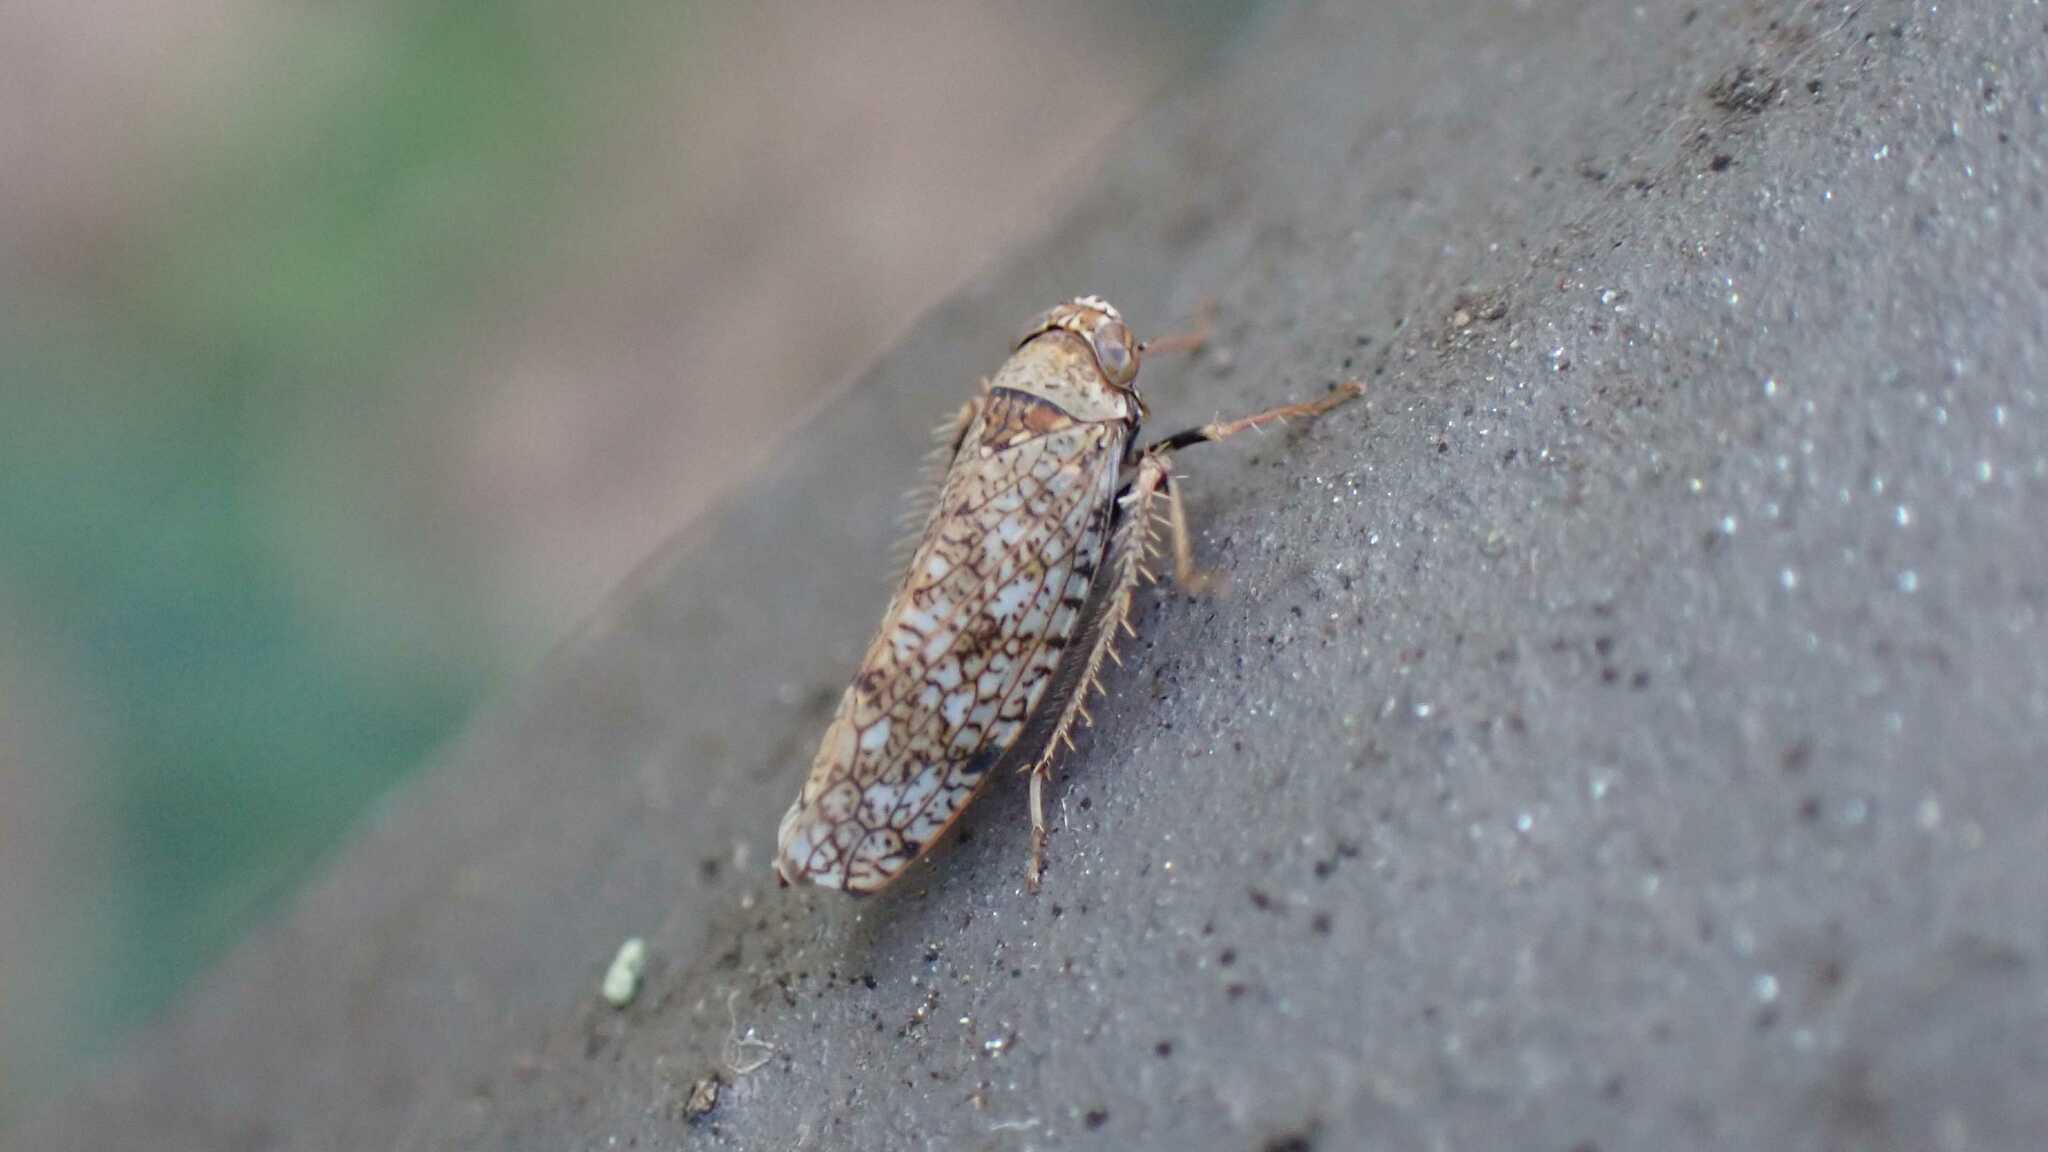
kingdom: Animalia
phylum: Arthropoda
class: Insecta
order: Hemiptera
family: Cicadellidae
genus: Orientus
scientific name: Orientus ishidae
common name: Japanese leafhopper
